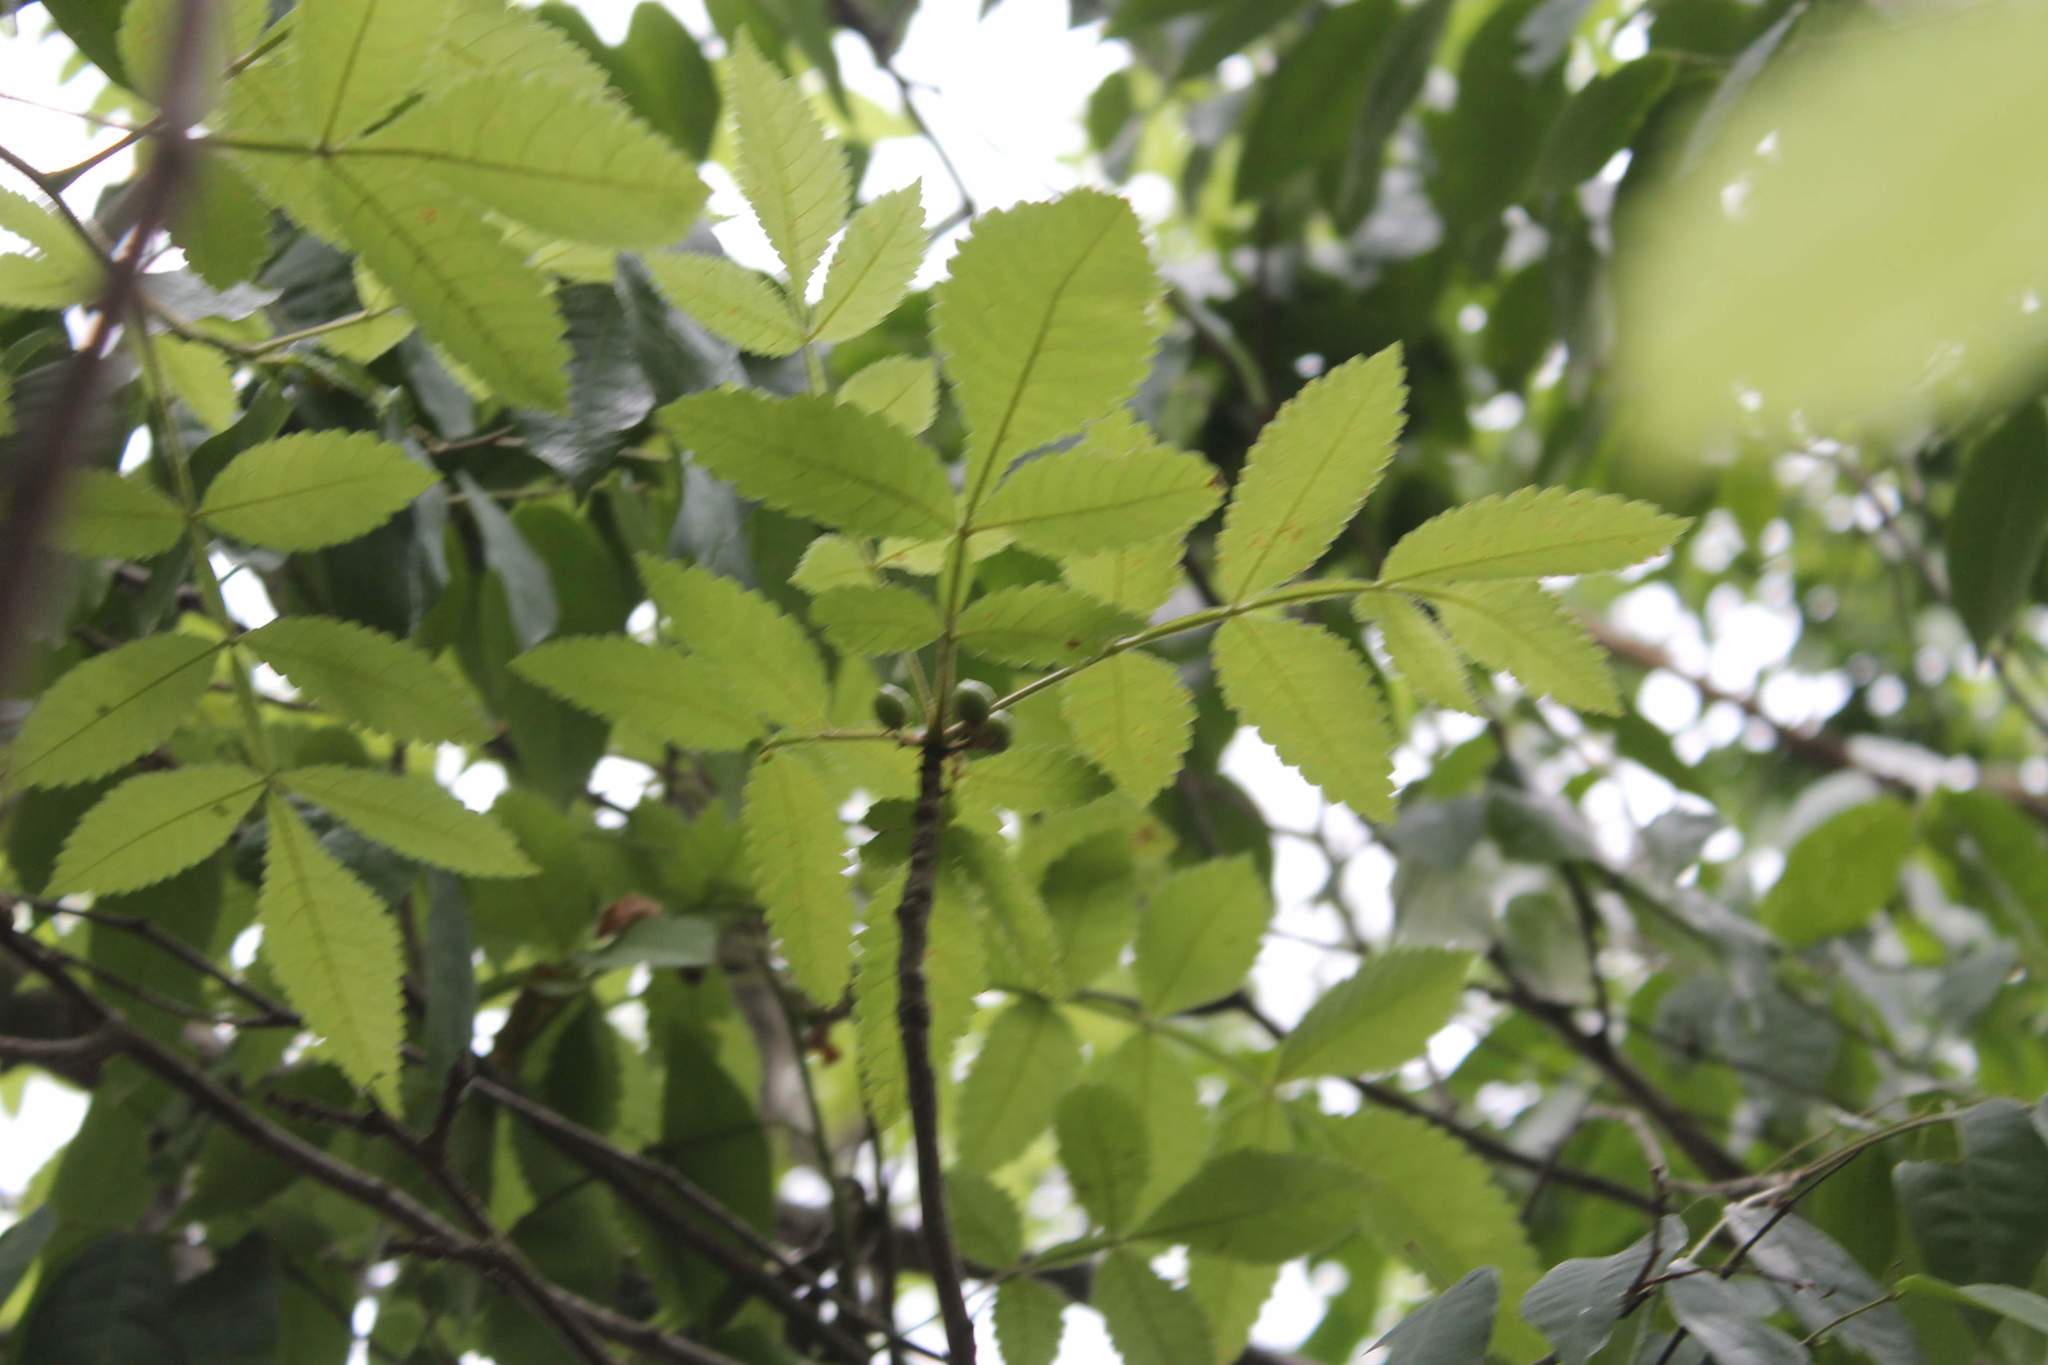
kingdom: Plantae
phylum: Tracheophyta
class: Magnoliopsida
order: Sapindales
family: Burseraceae
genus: Bursera
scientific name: Bursera excelsa
